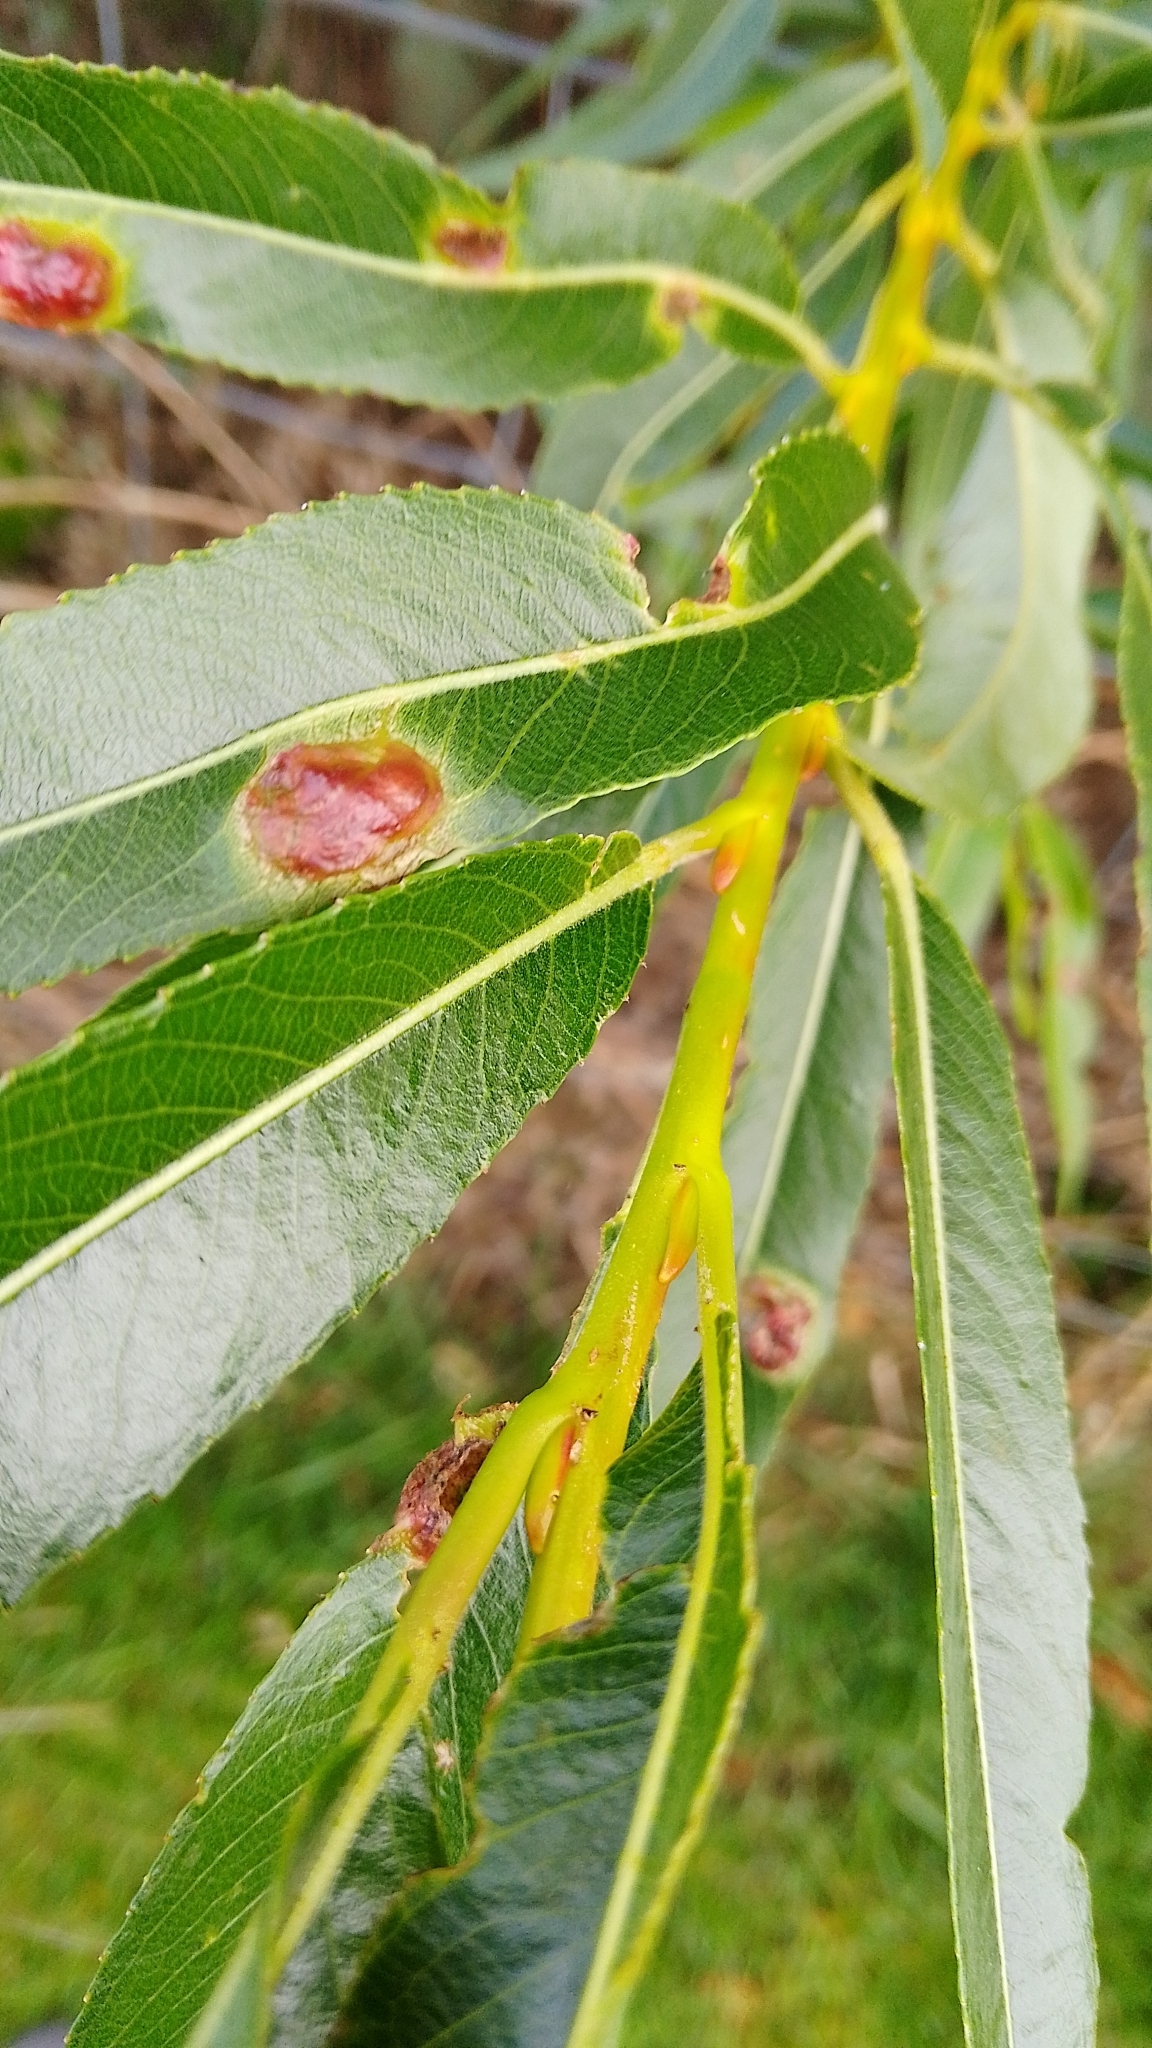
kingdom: Animalia
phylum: Arthropoda
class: Insecta
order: Hymenoptera
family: Tenthredinidae
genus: Pontania
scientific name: Pontania proxima
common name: Common sawfly
